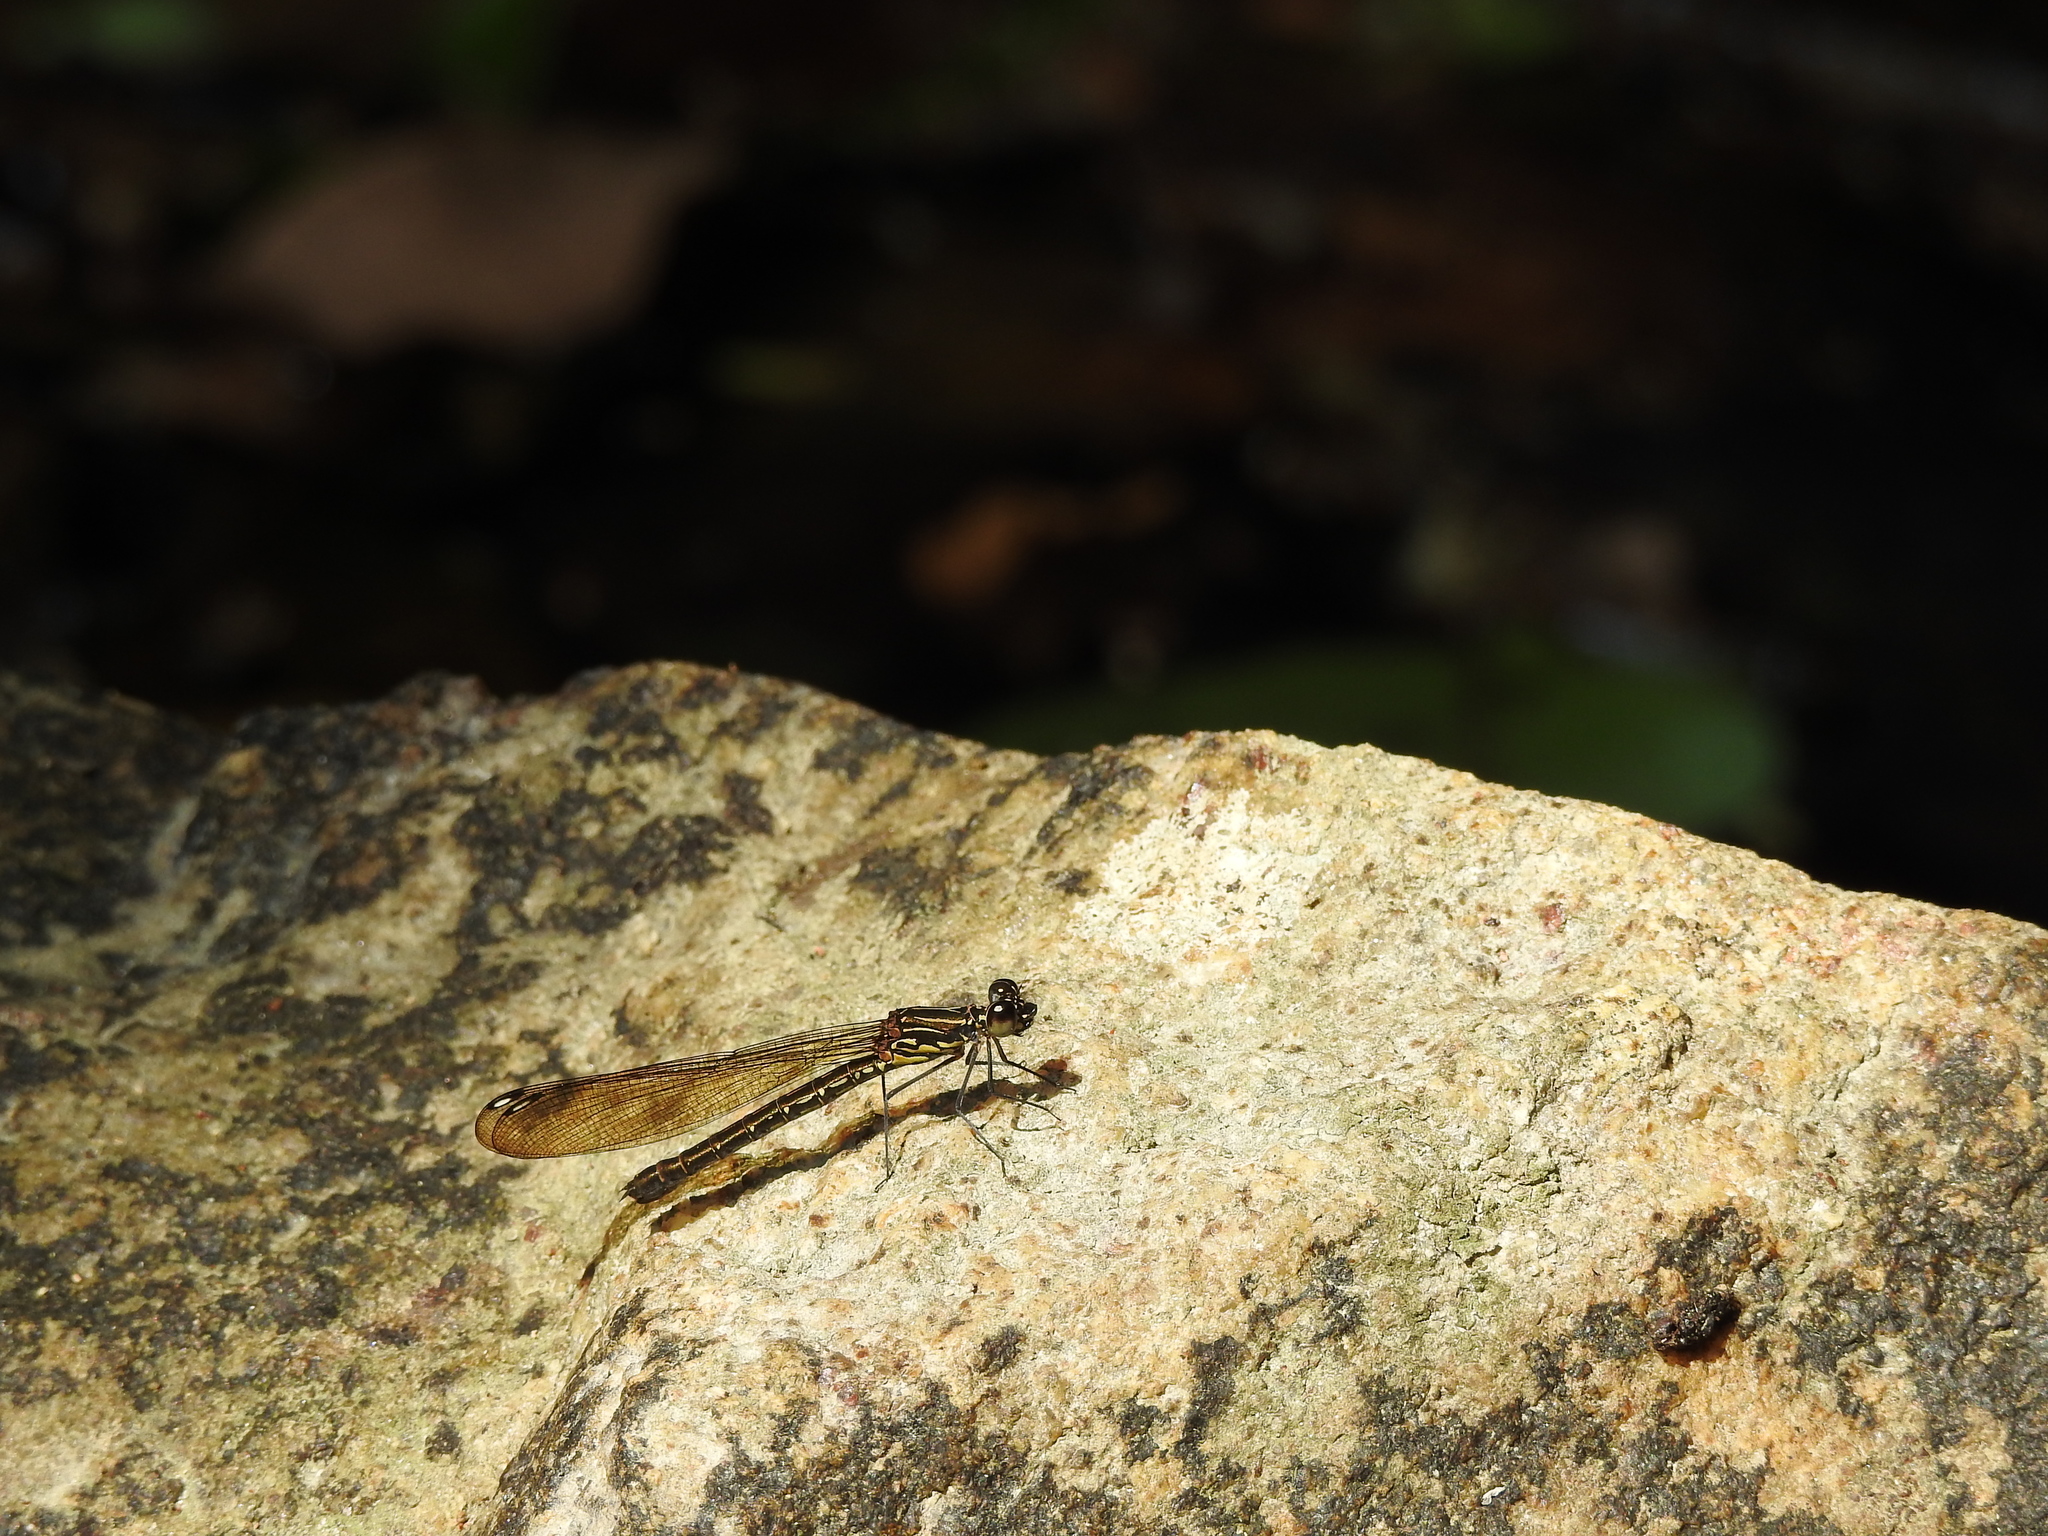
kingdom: Animalia
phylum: Arthropoda
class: Insecta
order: Odonata
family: Chlorocyphidae
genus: Heliocypha
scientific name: Heliocypha bisignata
